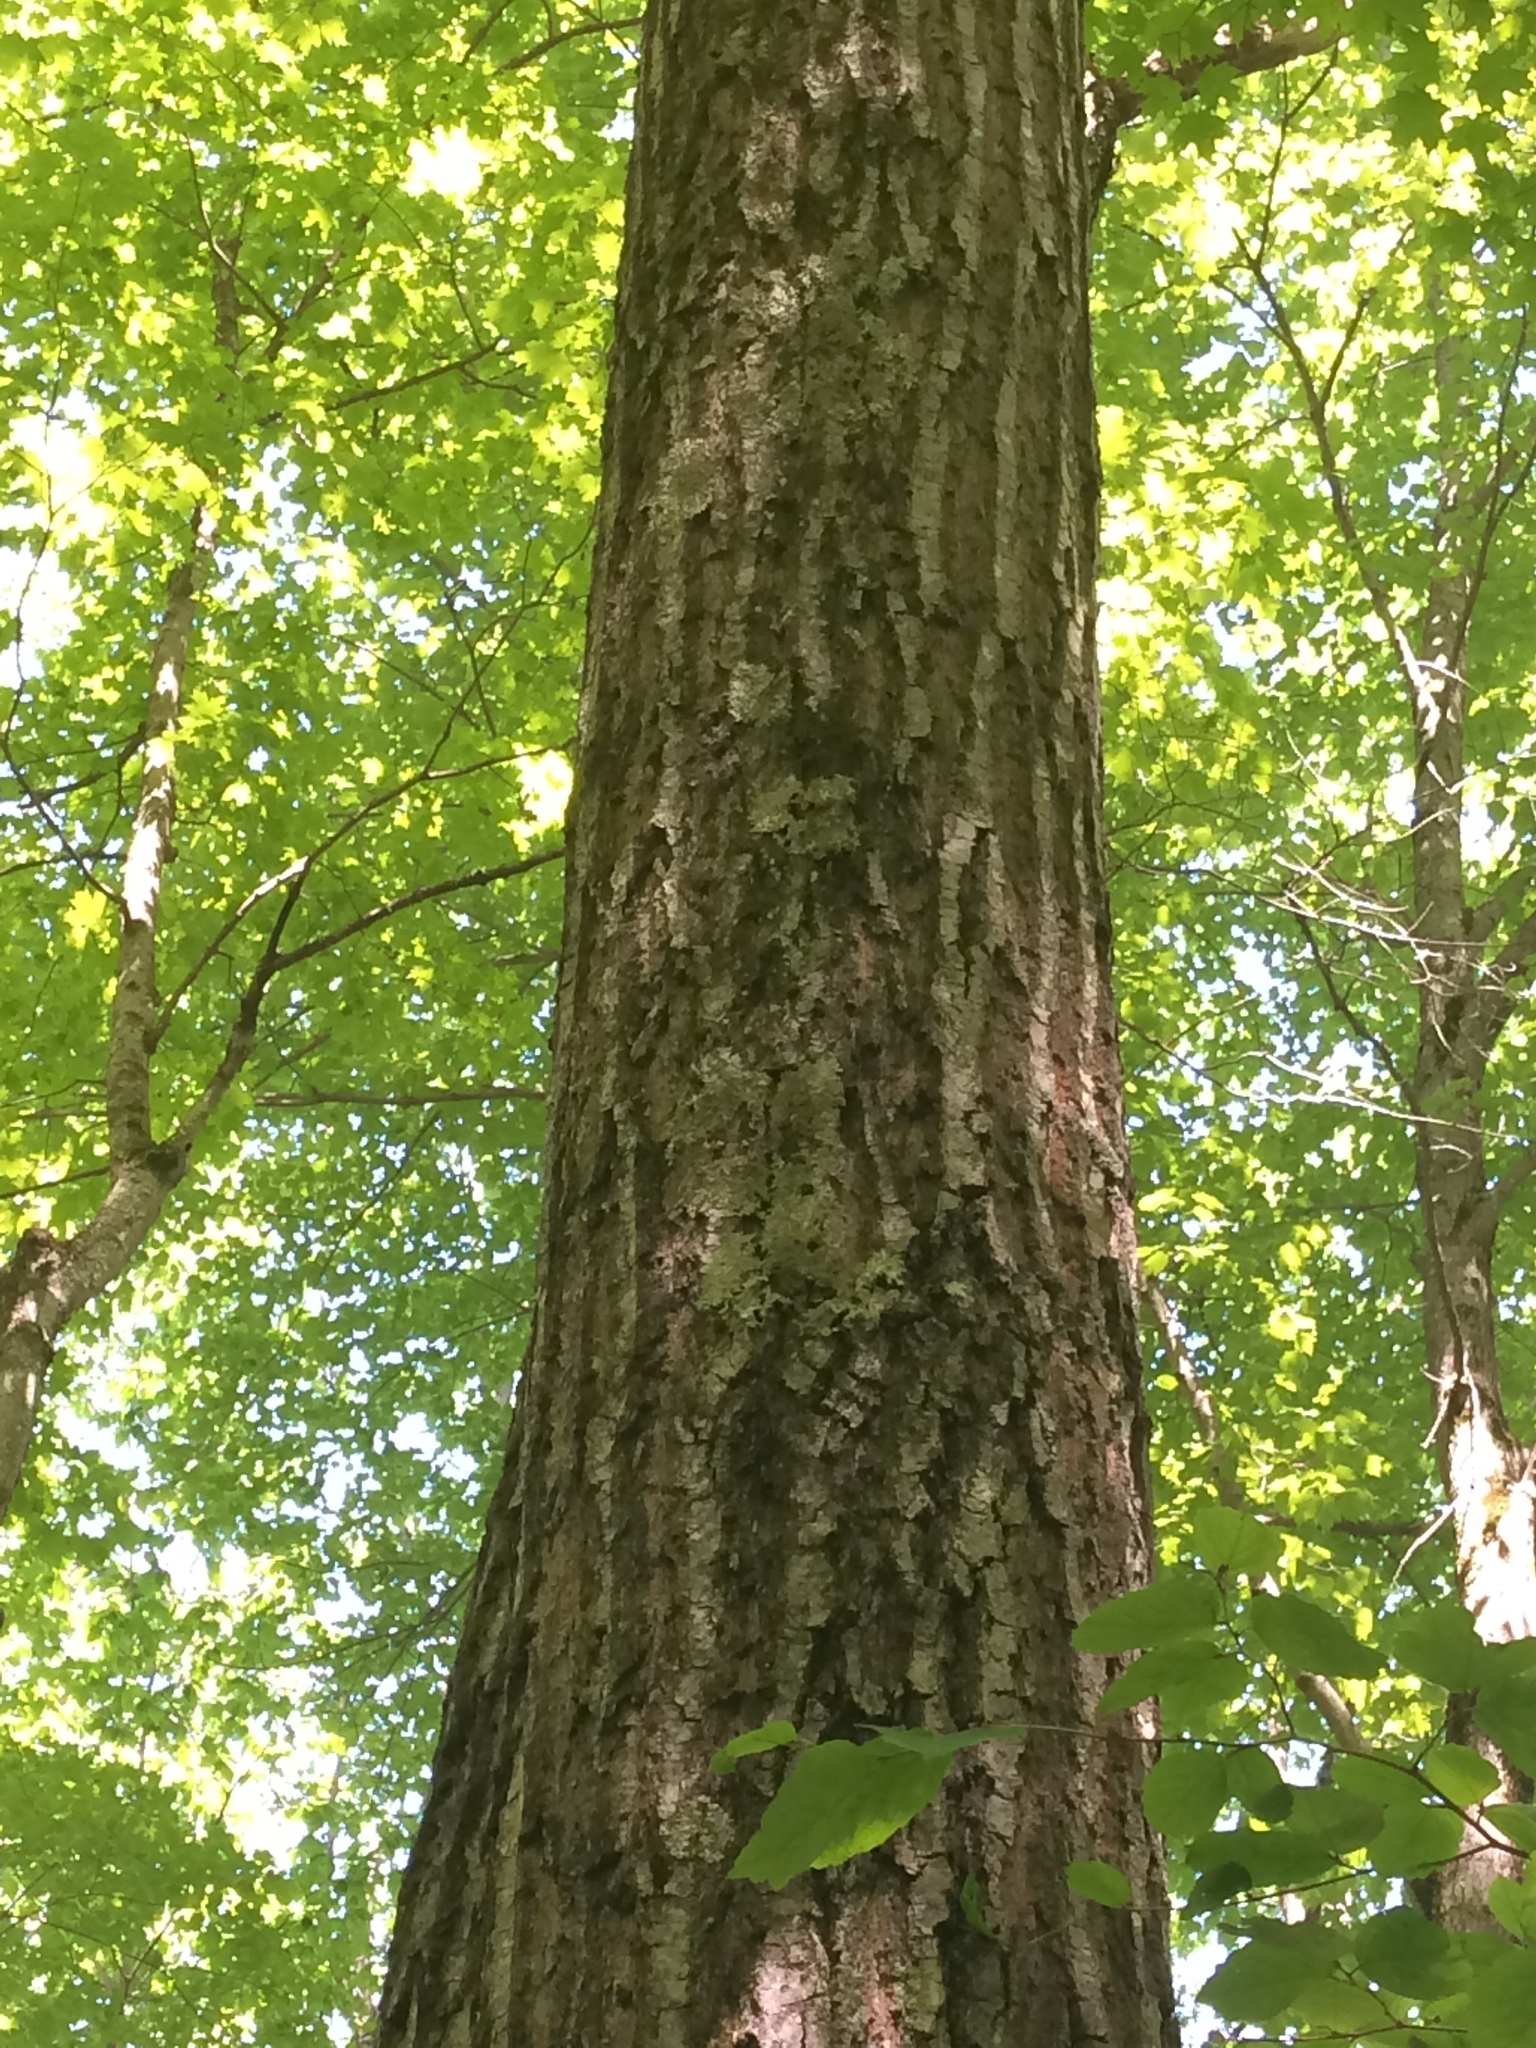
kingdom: Plantae
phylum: Tracheophyta
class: Magnoliopsida
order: Fagales
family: Fagaceae
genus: Quercus
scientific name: Quercus rubra
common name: Red oak
